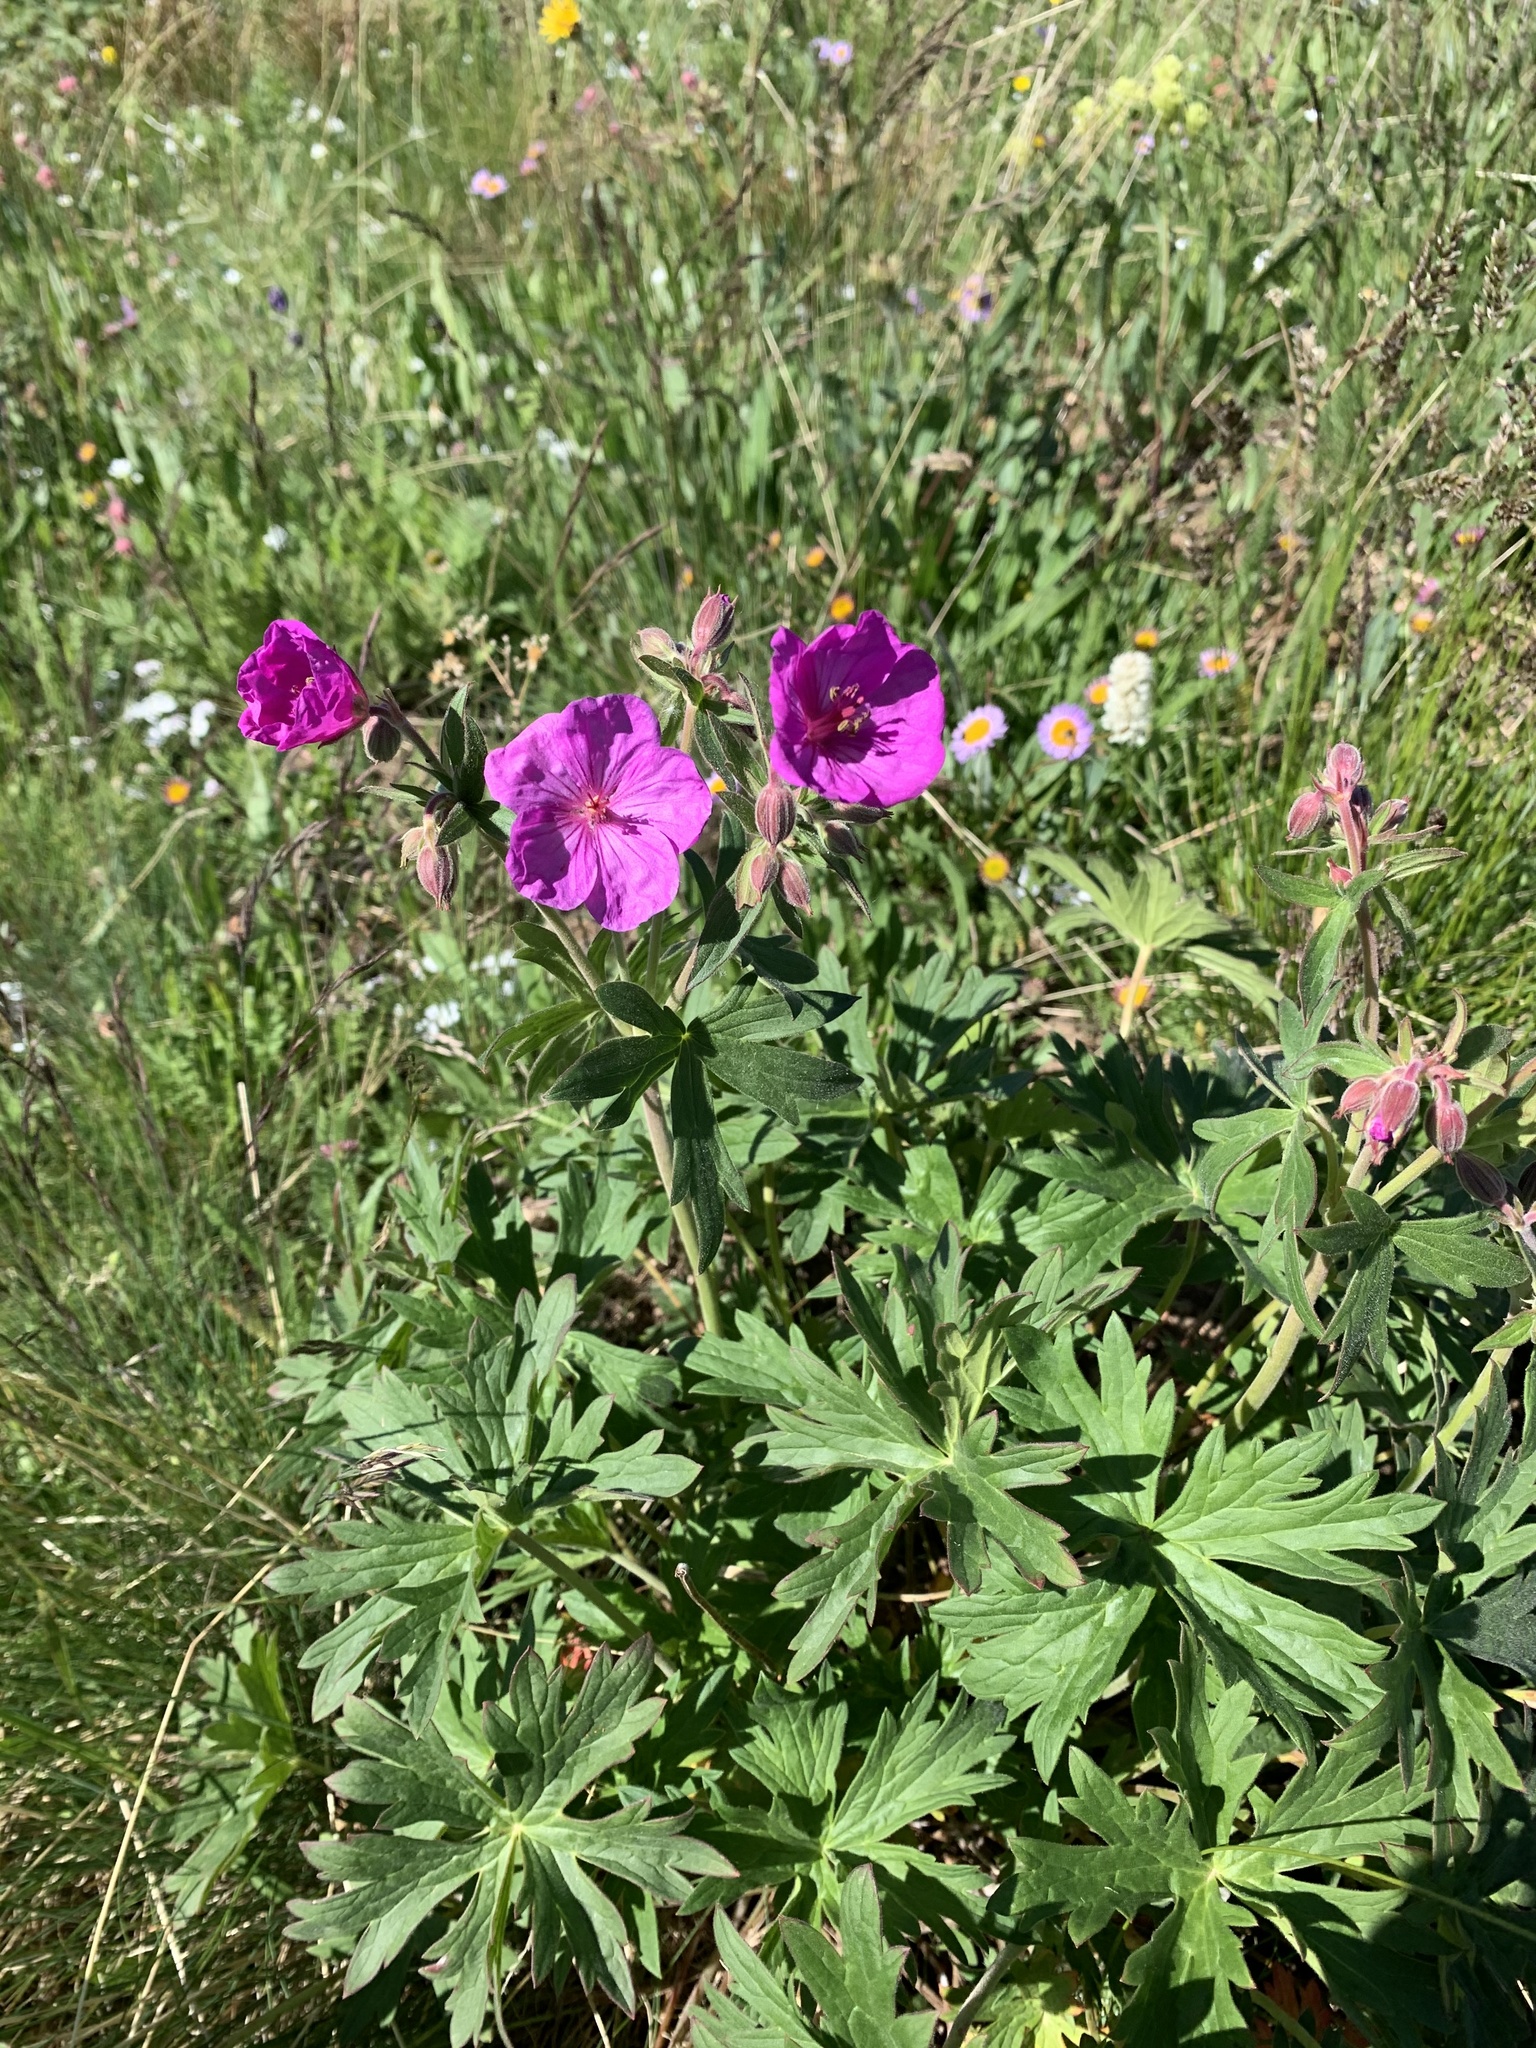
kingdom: Plantae
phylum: Tracheophyta
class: Magnoliopsida
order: Geraniales
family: Geraniaceae
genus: Geranium
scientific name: Geranium viscosissimum
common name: Purple geranium
